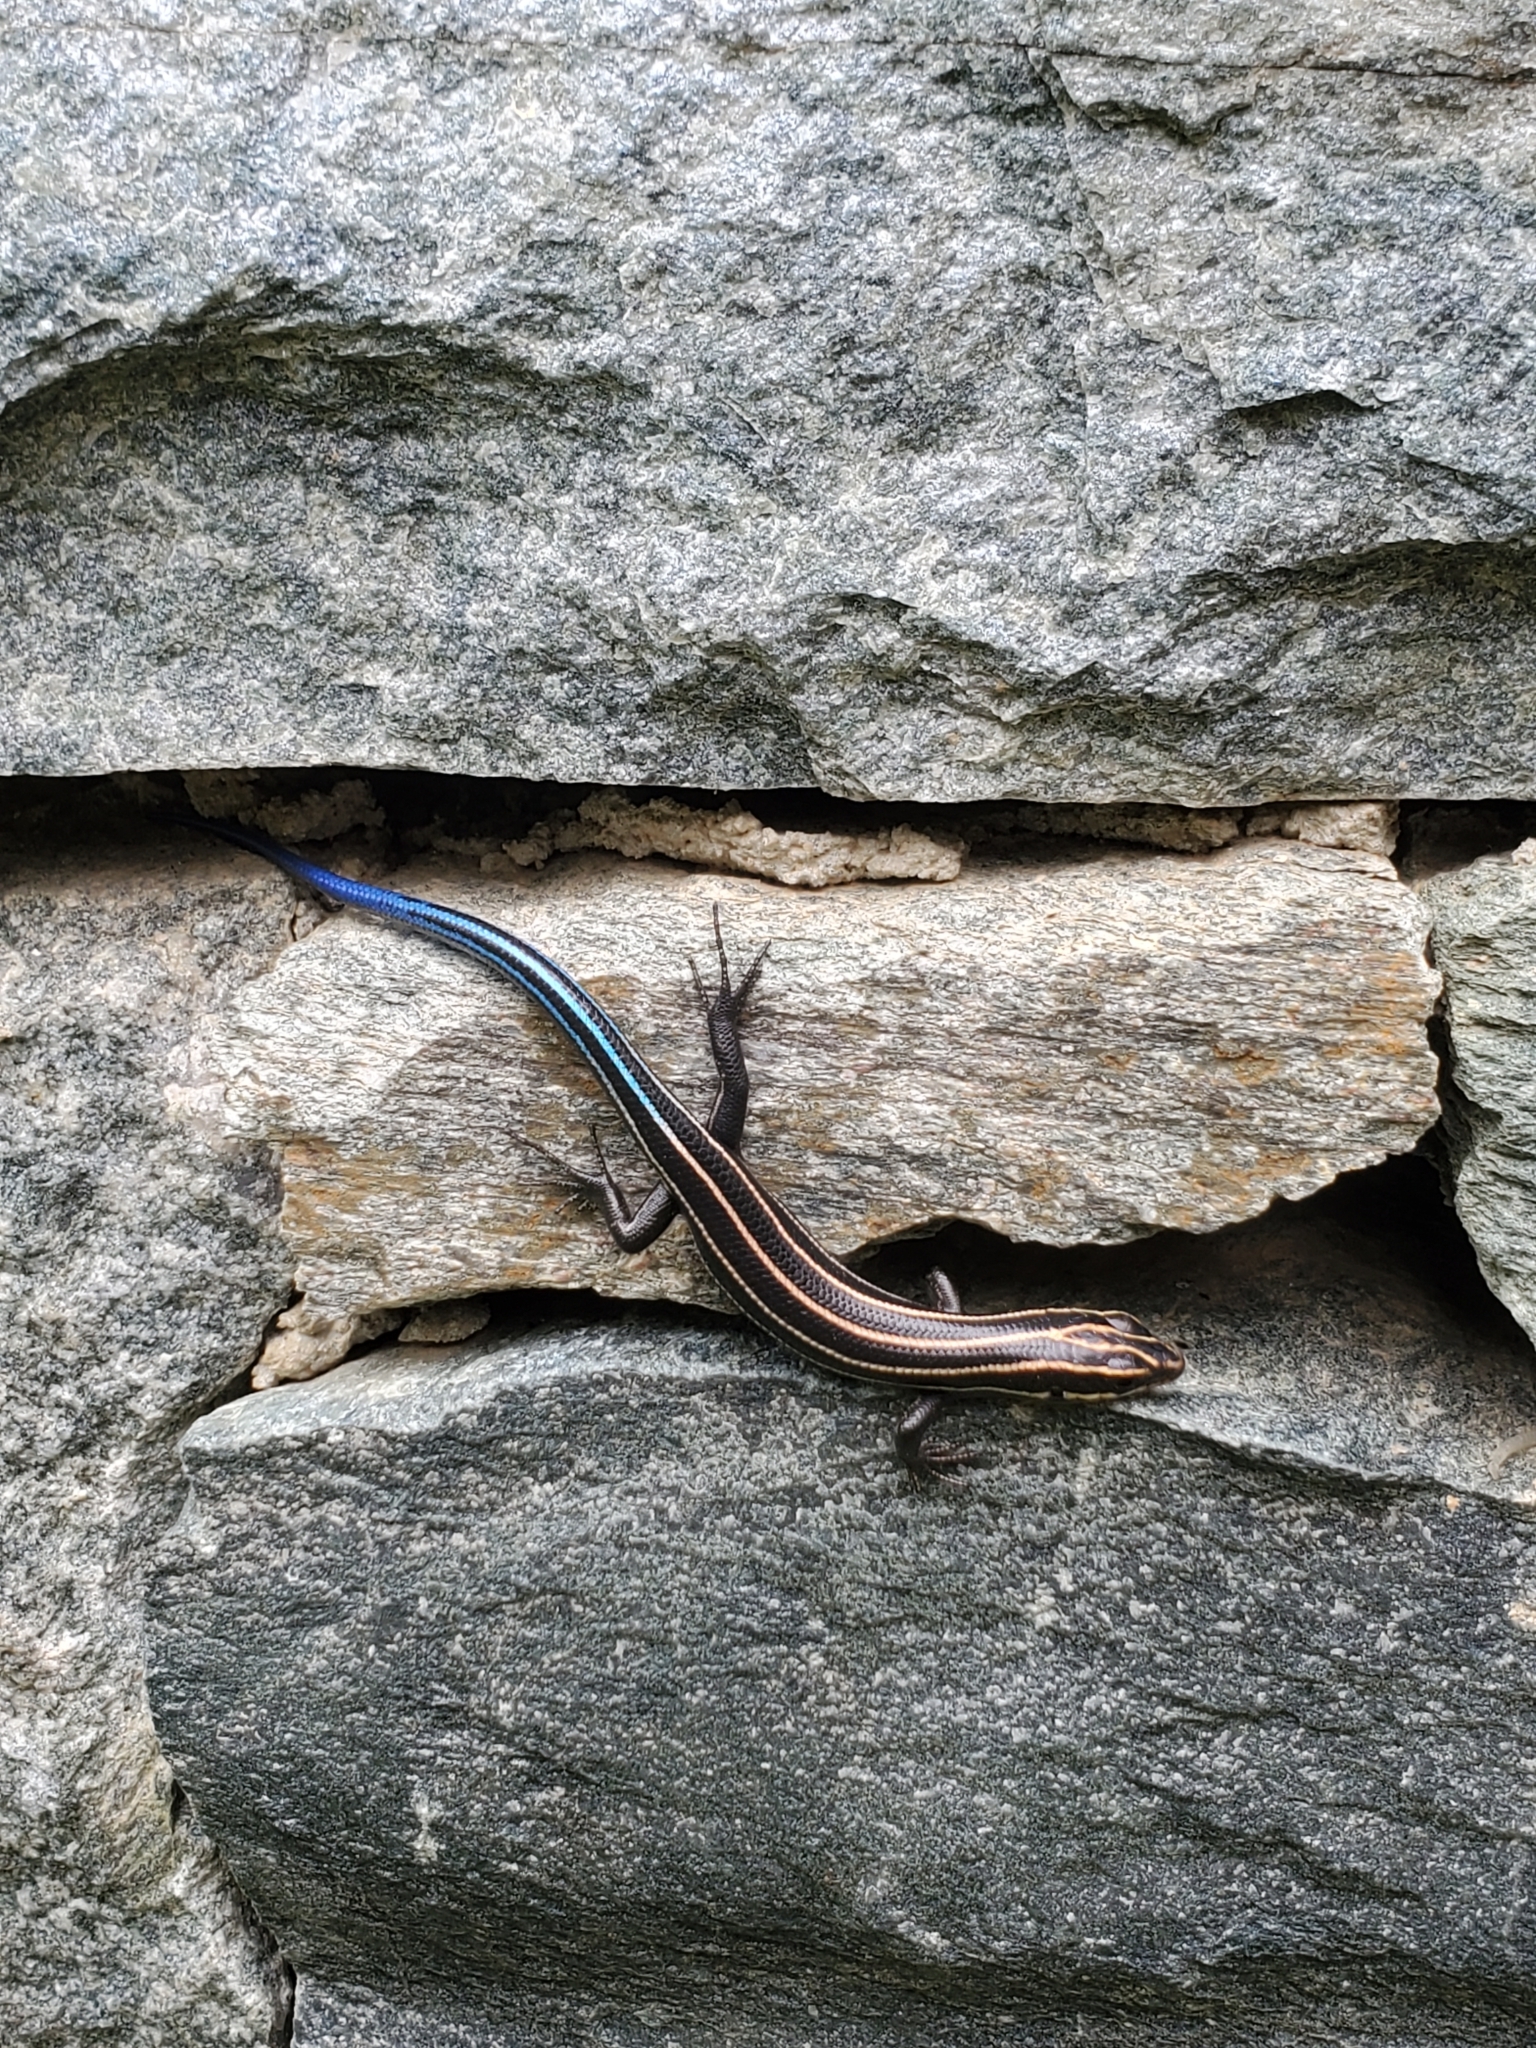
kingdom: Animalia
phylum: Chordata
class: Squamata
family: Scincidae
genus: Plestiodon
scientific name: Plestiodon fasciatus
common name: Five-lined skink
